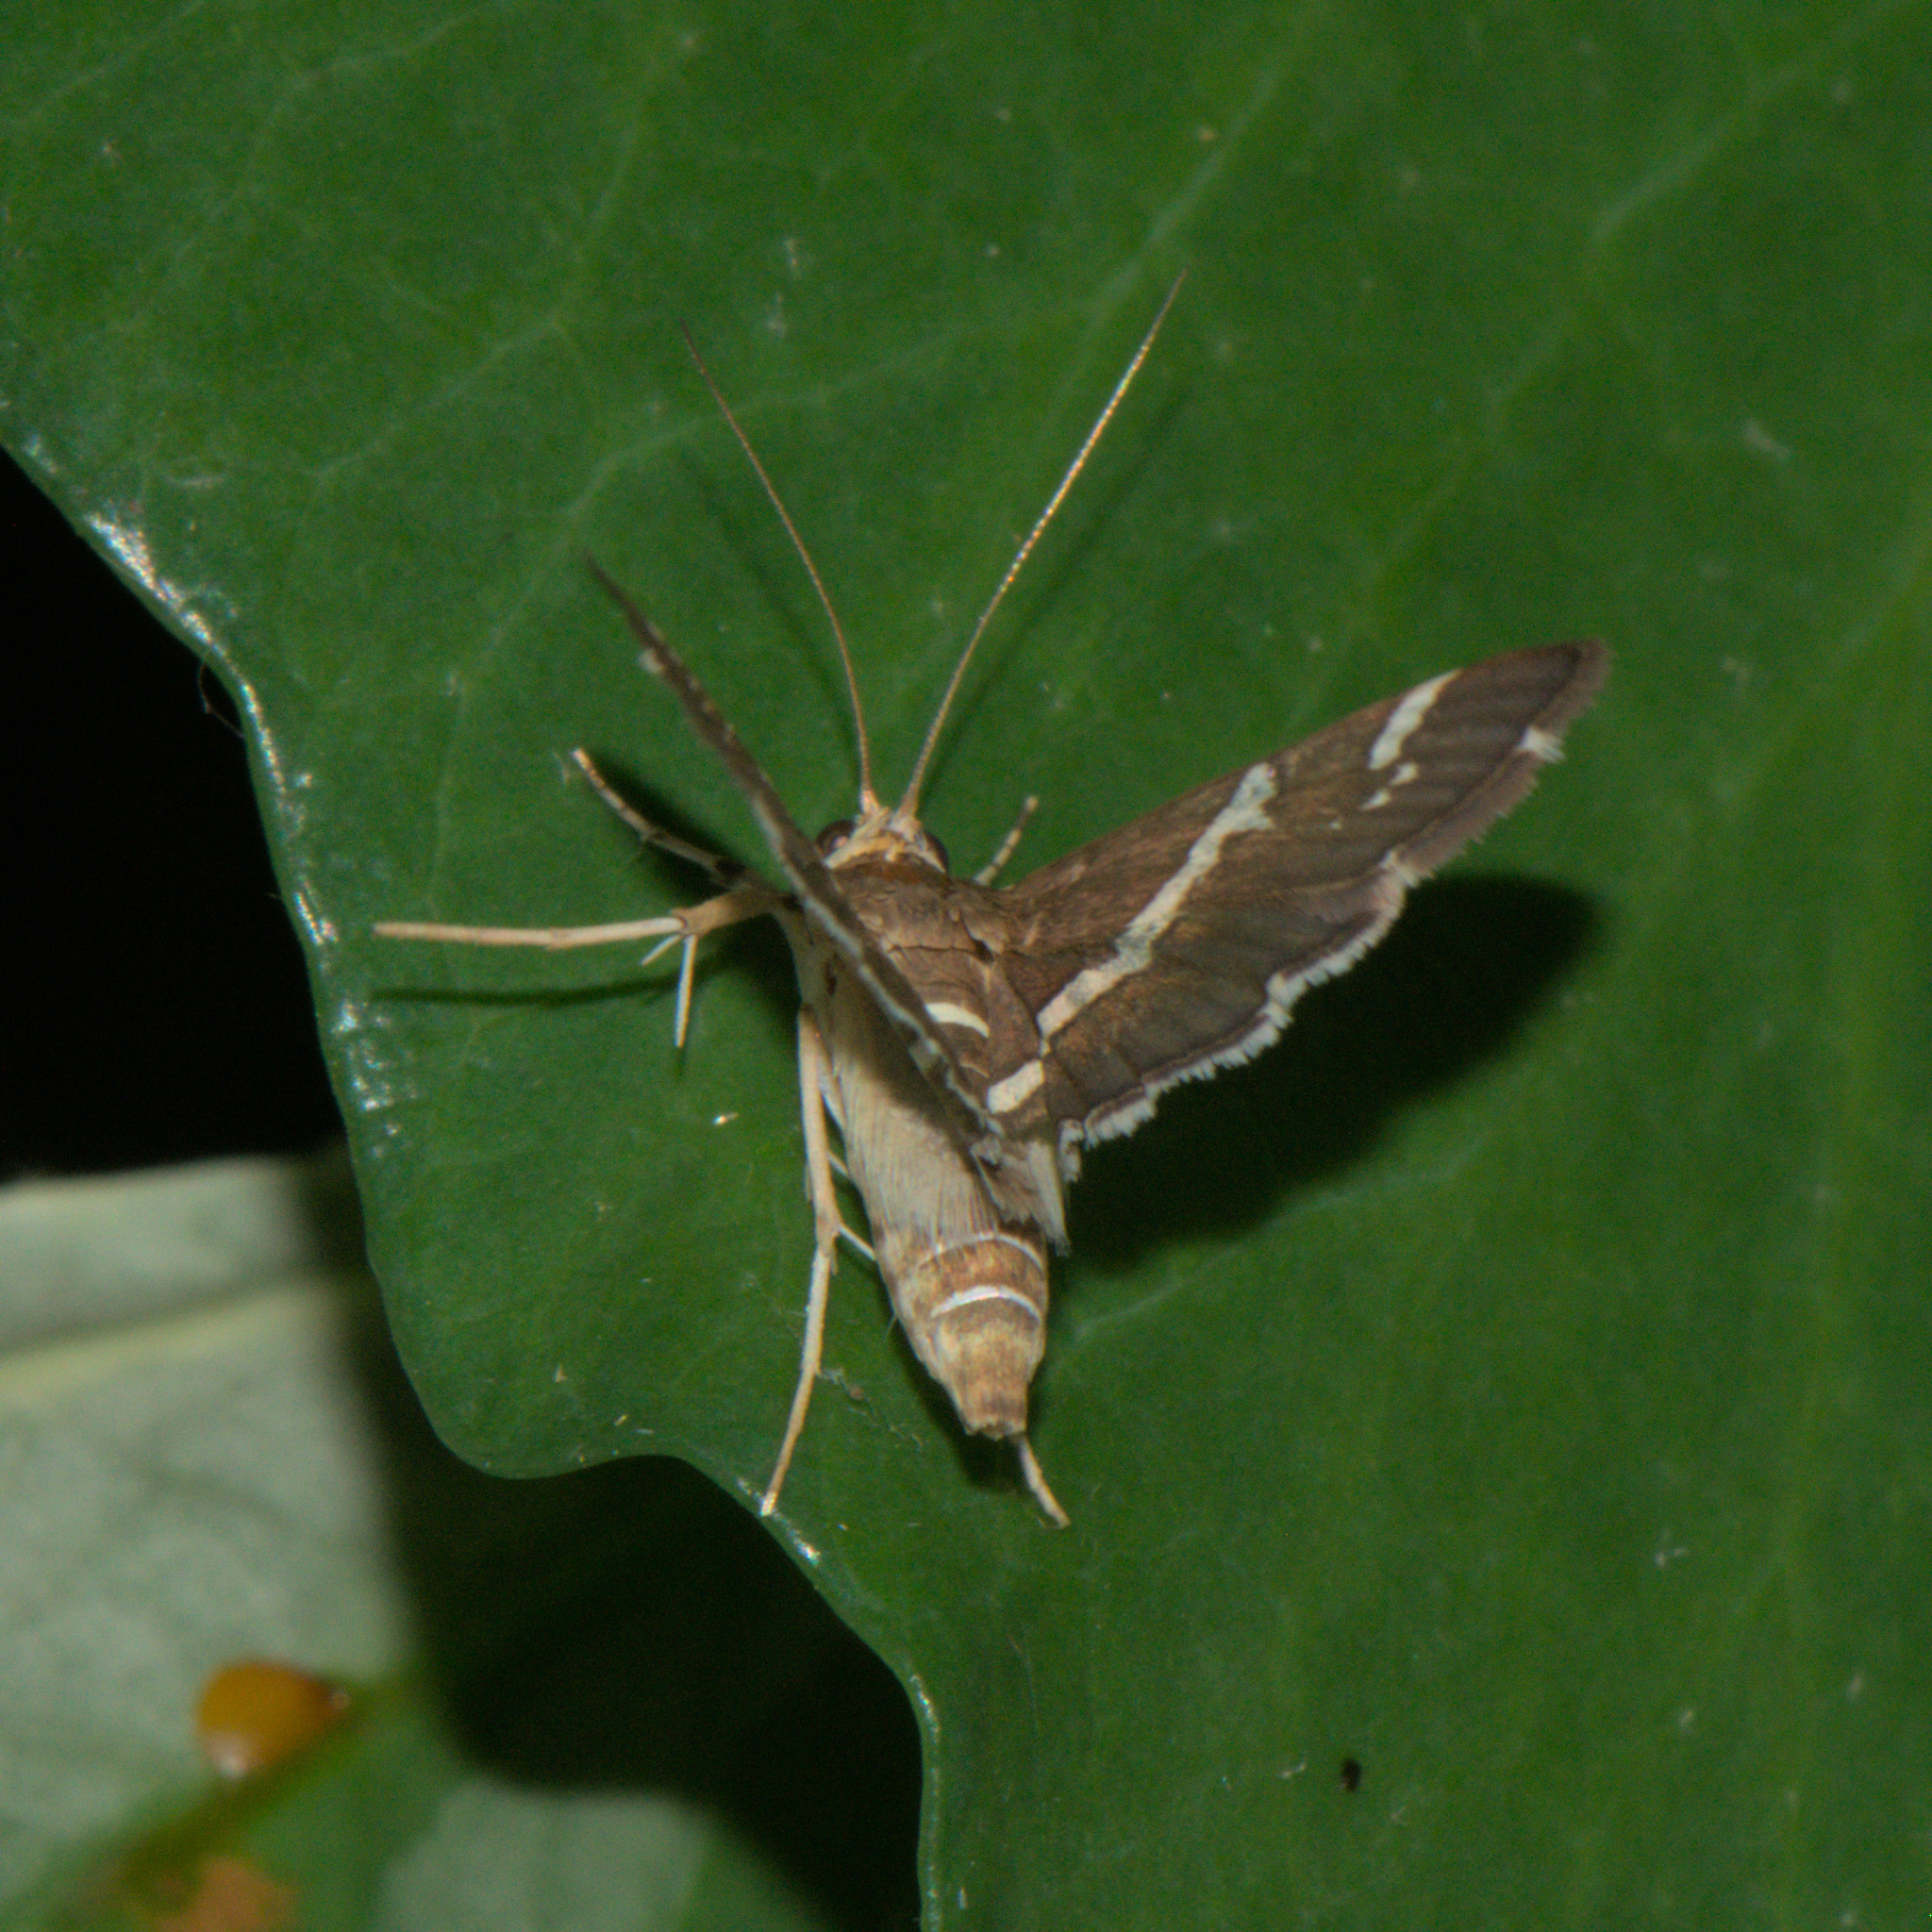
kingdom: Animalia
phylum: Arthropoda
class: Insecta
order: Lepidoptera
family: Crambidae
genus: Spoladea
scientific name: Spoladea recurvalis
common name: Beet webworm moth
